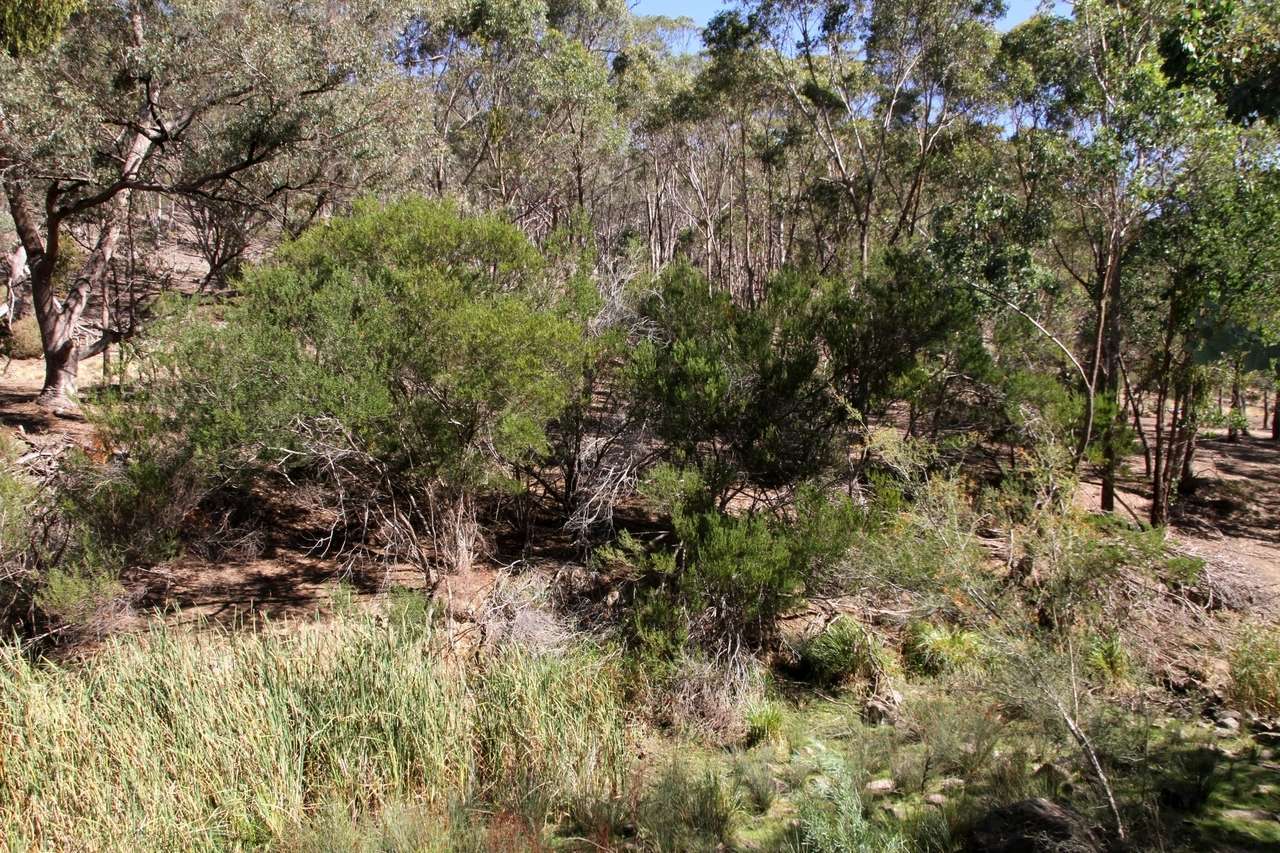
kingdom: Plantae
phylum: Tracheophyta
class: Magnoliopsida
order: Fabales
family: Fabaceae
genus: Acacia
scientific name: Acacia rostriformis
